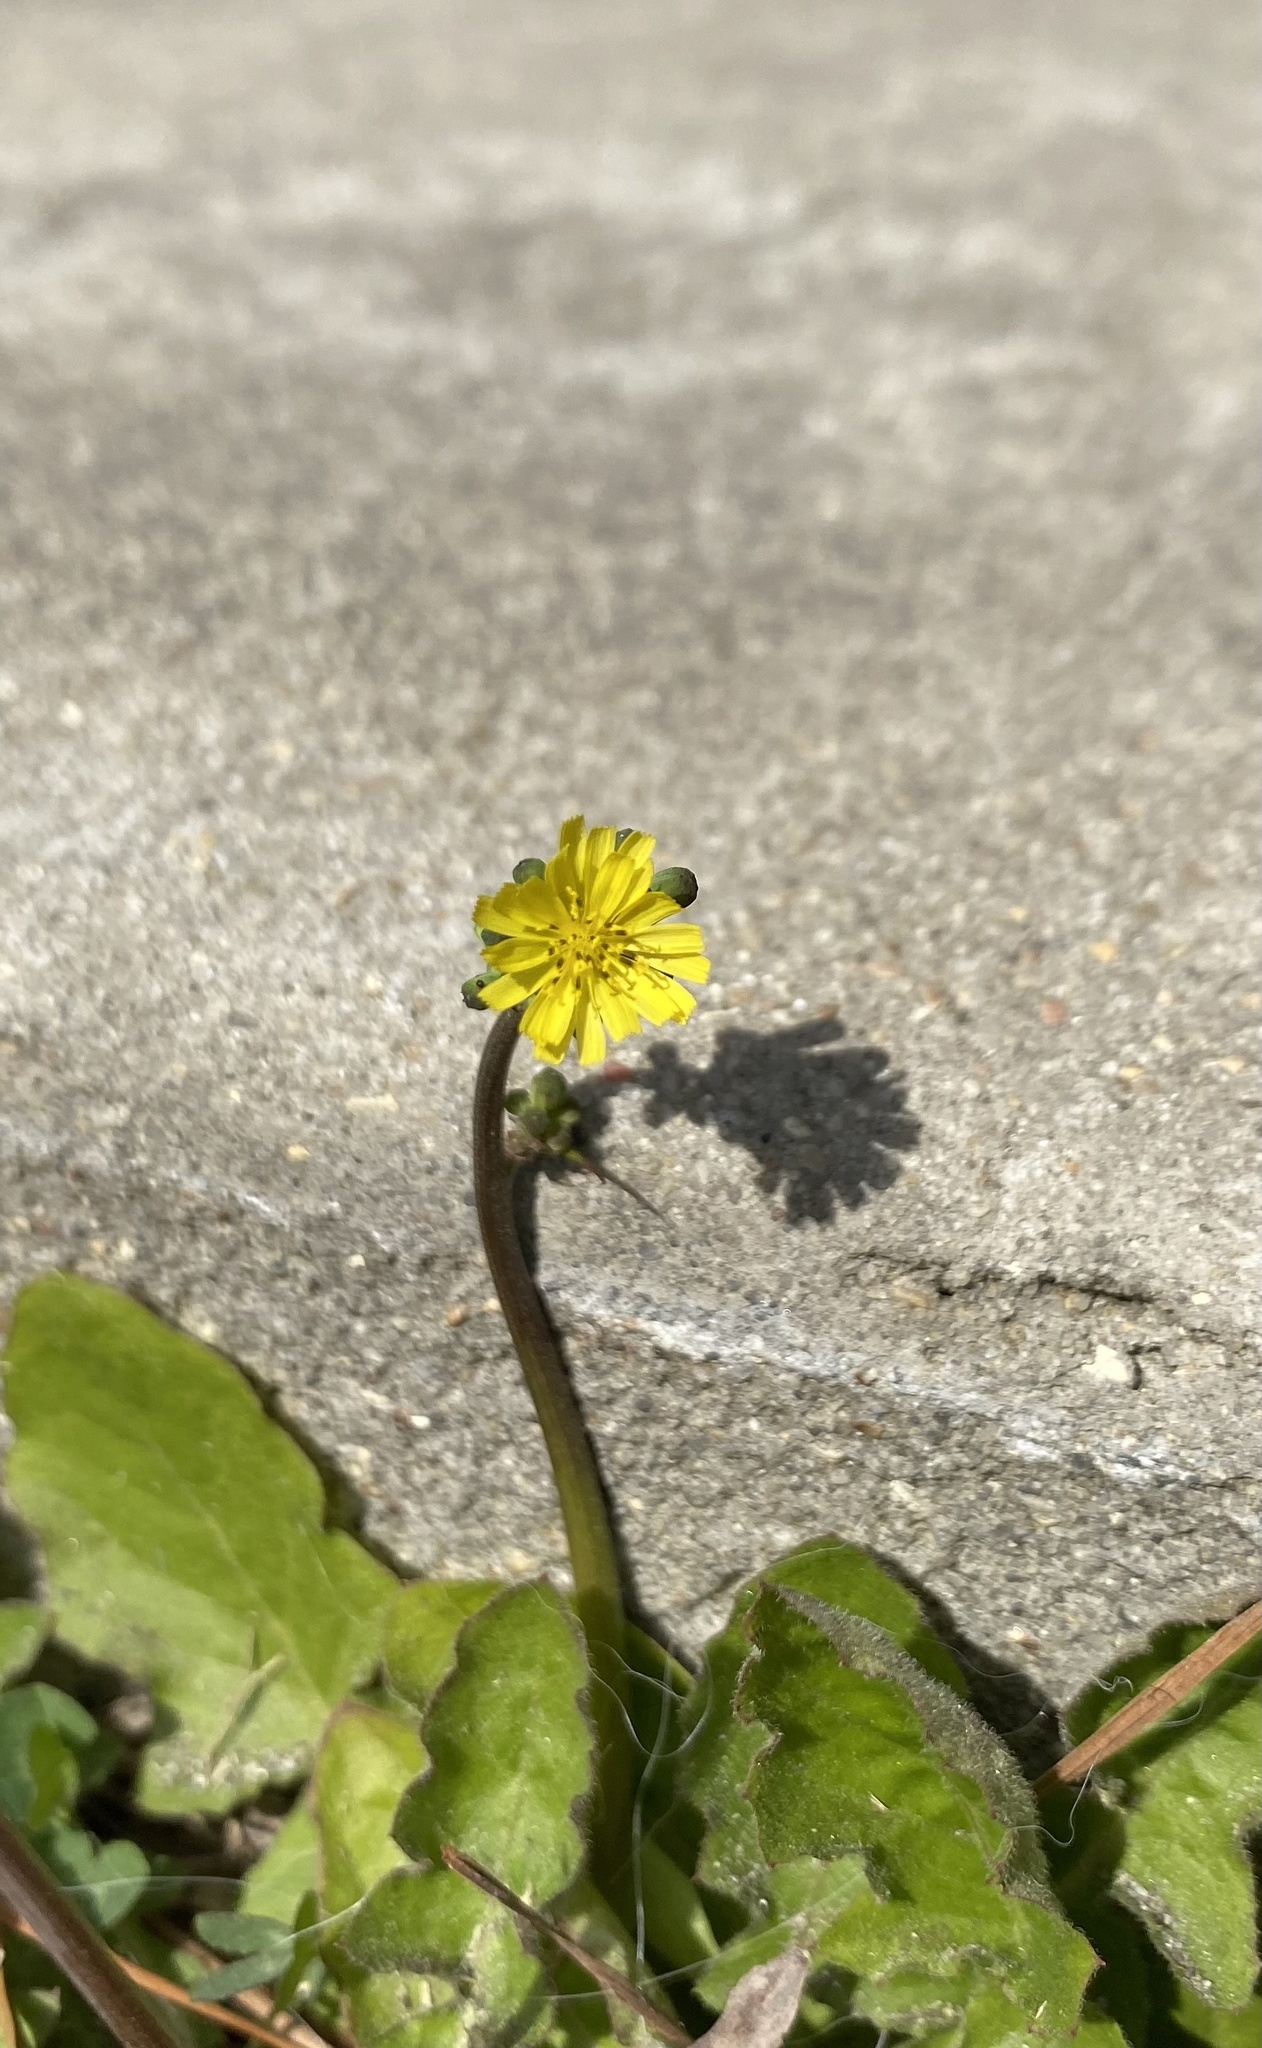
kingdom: Plantae
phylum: Tracheophyta
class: Magnoliopsida
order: Asterales
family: Asteraceae
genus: Youngia
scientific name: Youngia japonica
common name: Oriental false hawksbeard
